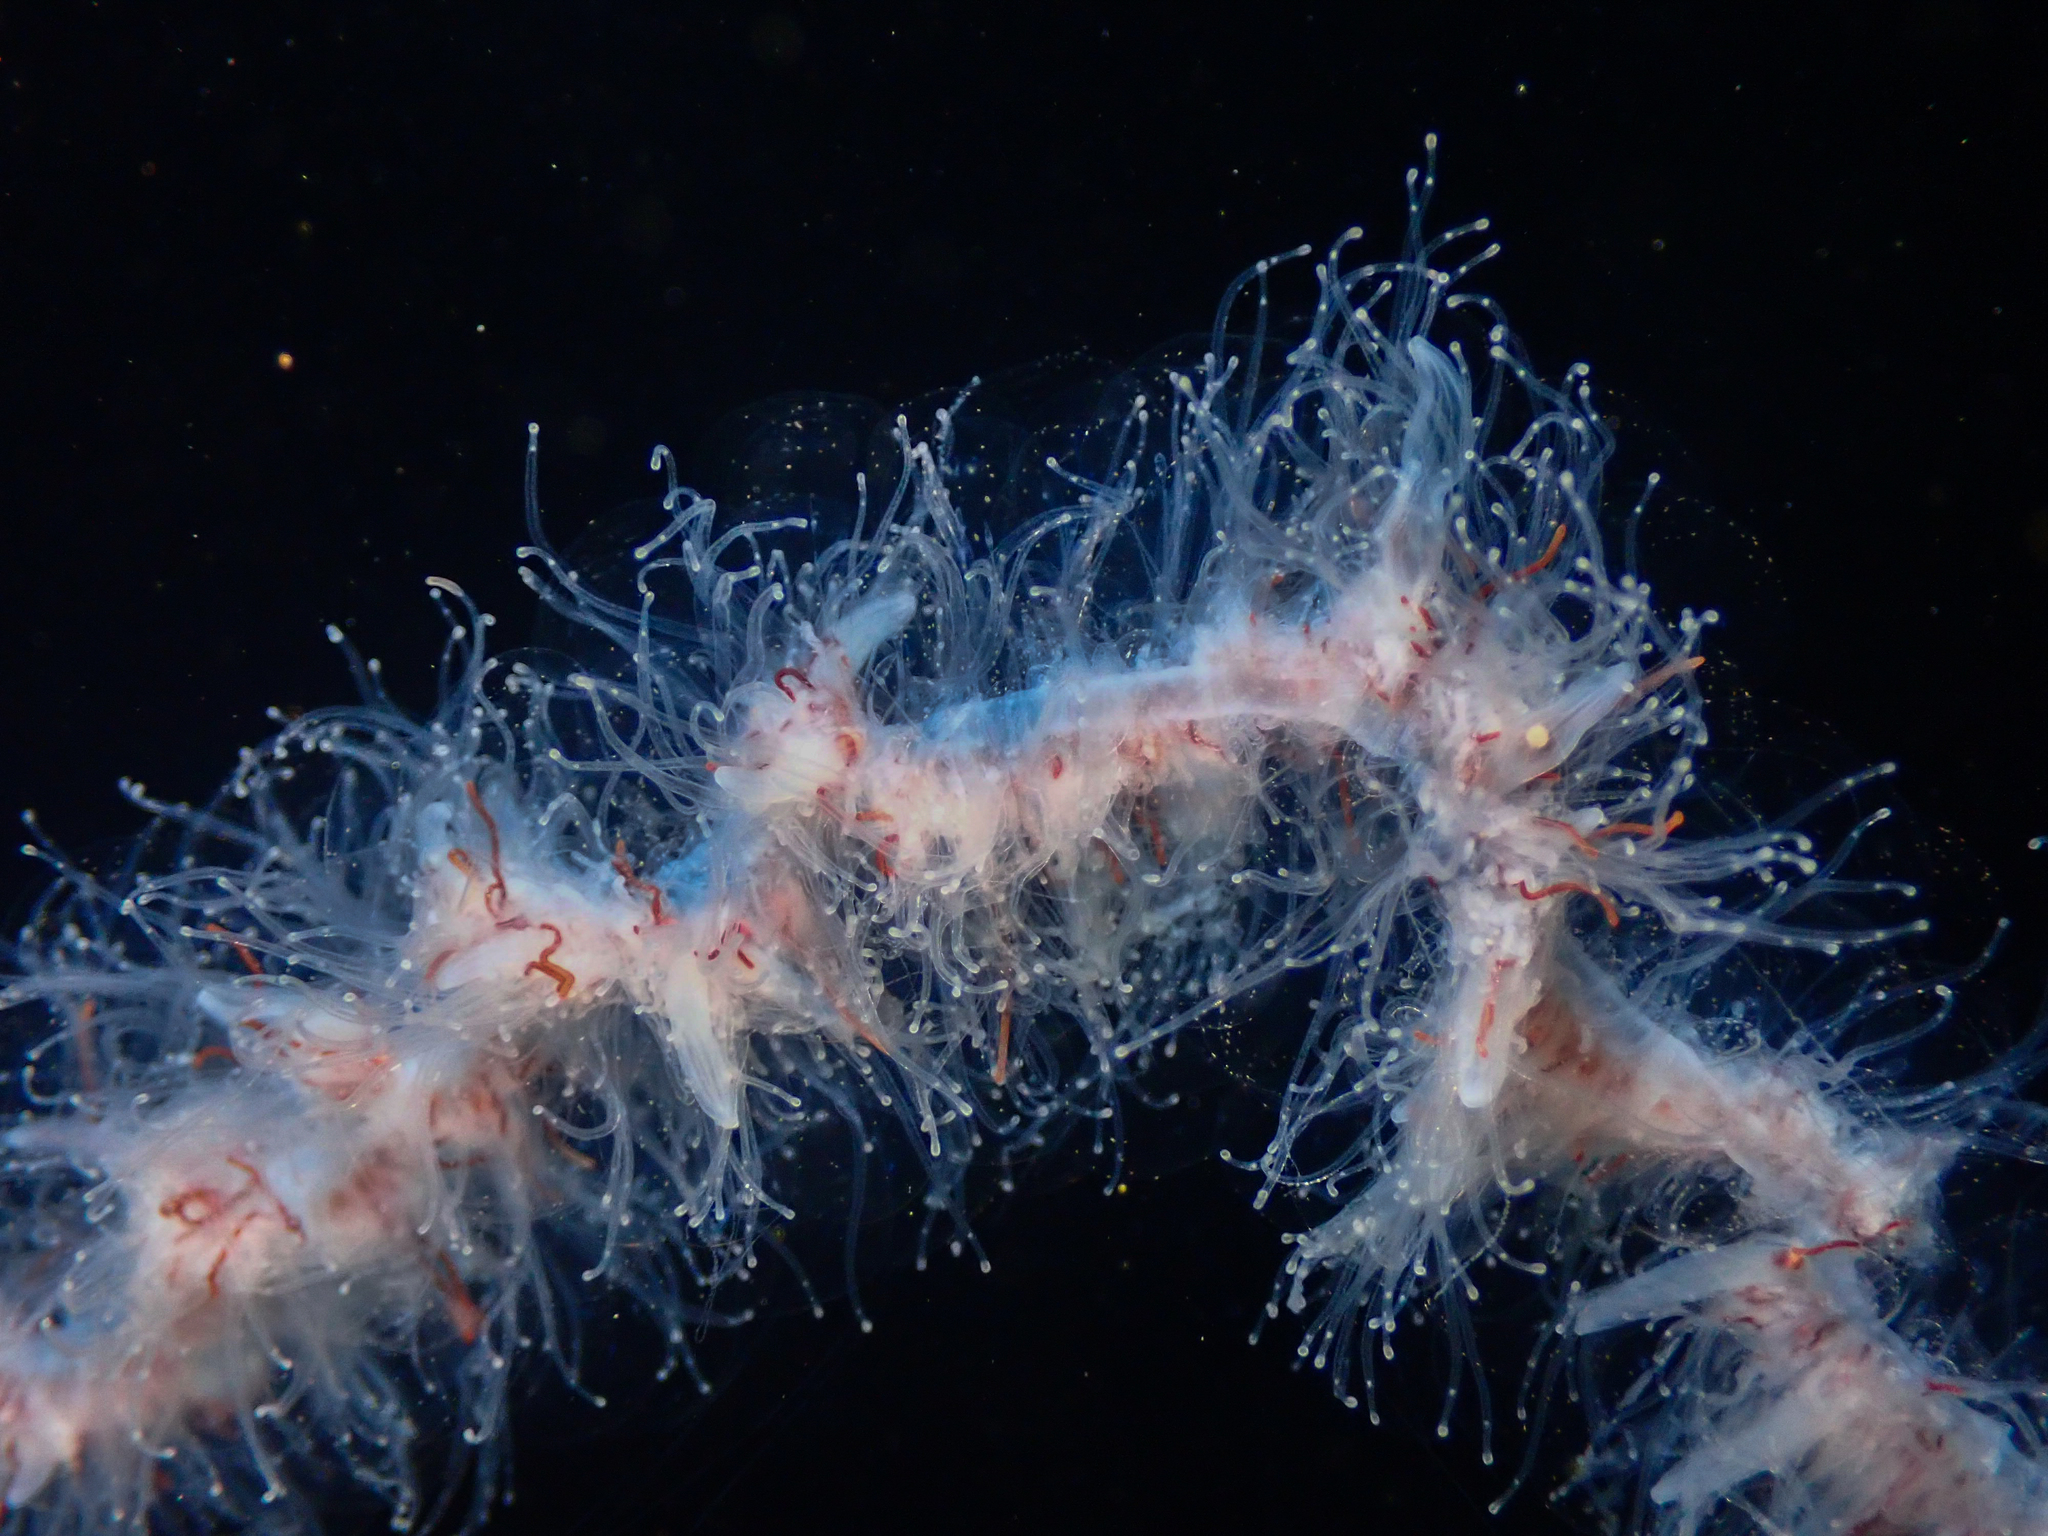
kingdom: Animalia
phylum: Cnidaria
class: Hydrozoa
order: Siphonophorae
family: Apolemiidae
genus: Apolemia
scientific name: Apolemia uvaria
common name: String jelly
